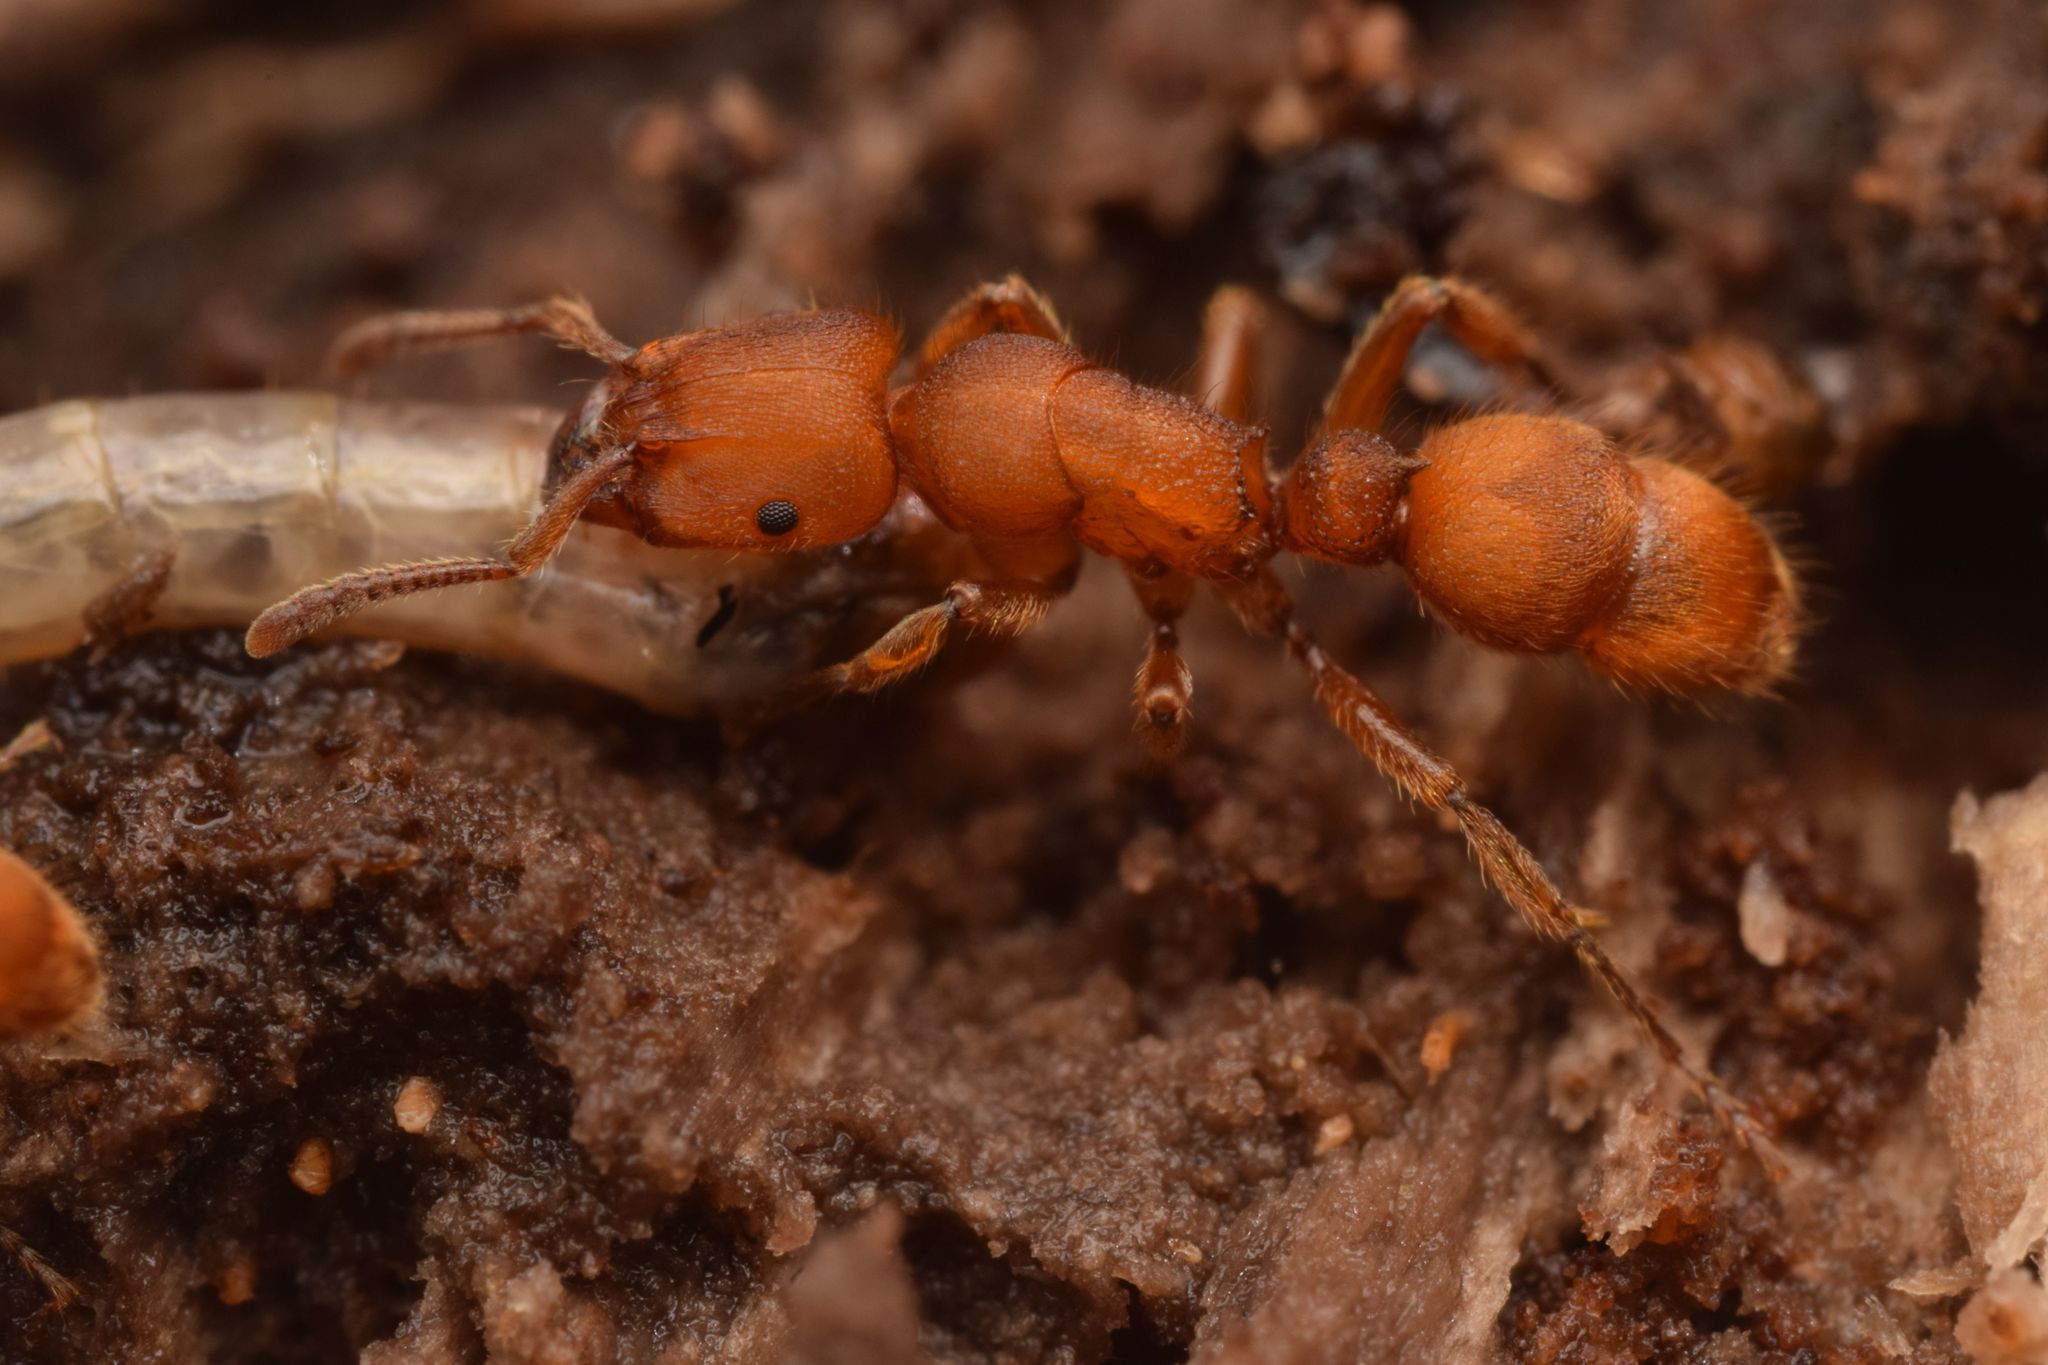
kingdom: Animalia
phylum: Arthropoda
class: Insecta
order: Hymenoptera
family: Formicidae
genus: Heteroponera
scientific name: Heteroponera dolo
